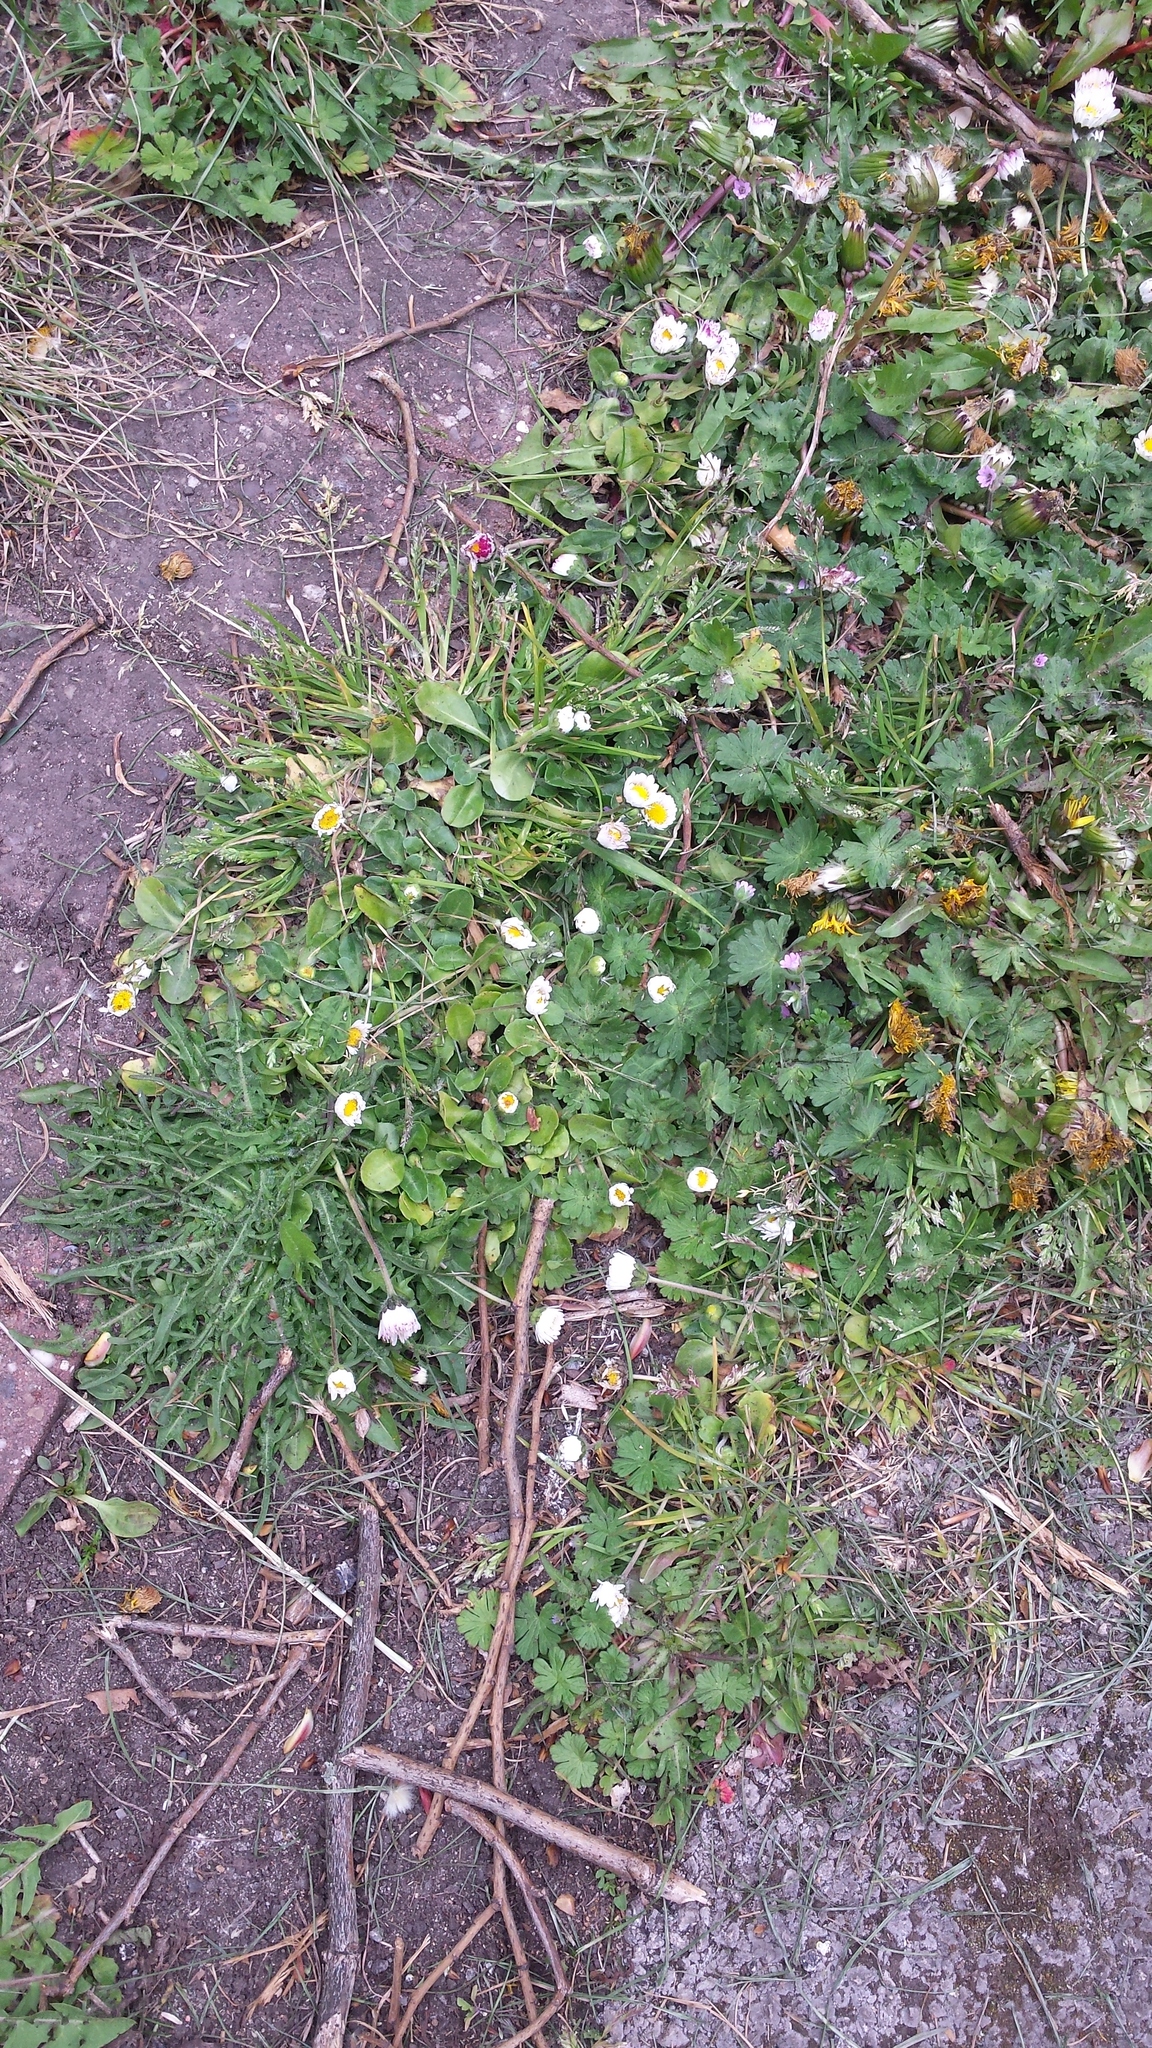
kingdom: Plantae
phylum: Tracheophyta
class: Magnoliopsida
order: Asterales
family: Asteraceae
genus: Bellis
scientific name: Bellis perennis
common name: Lawndaisy
